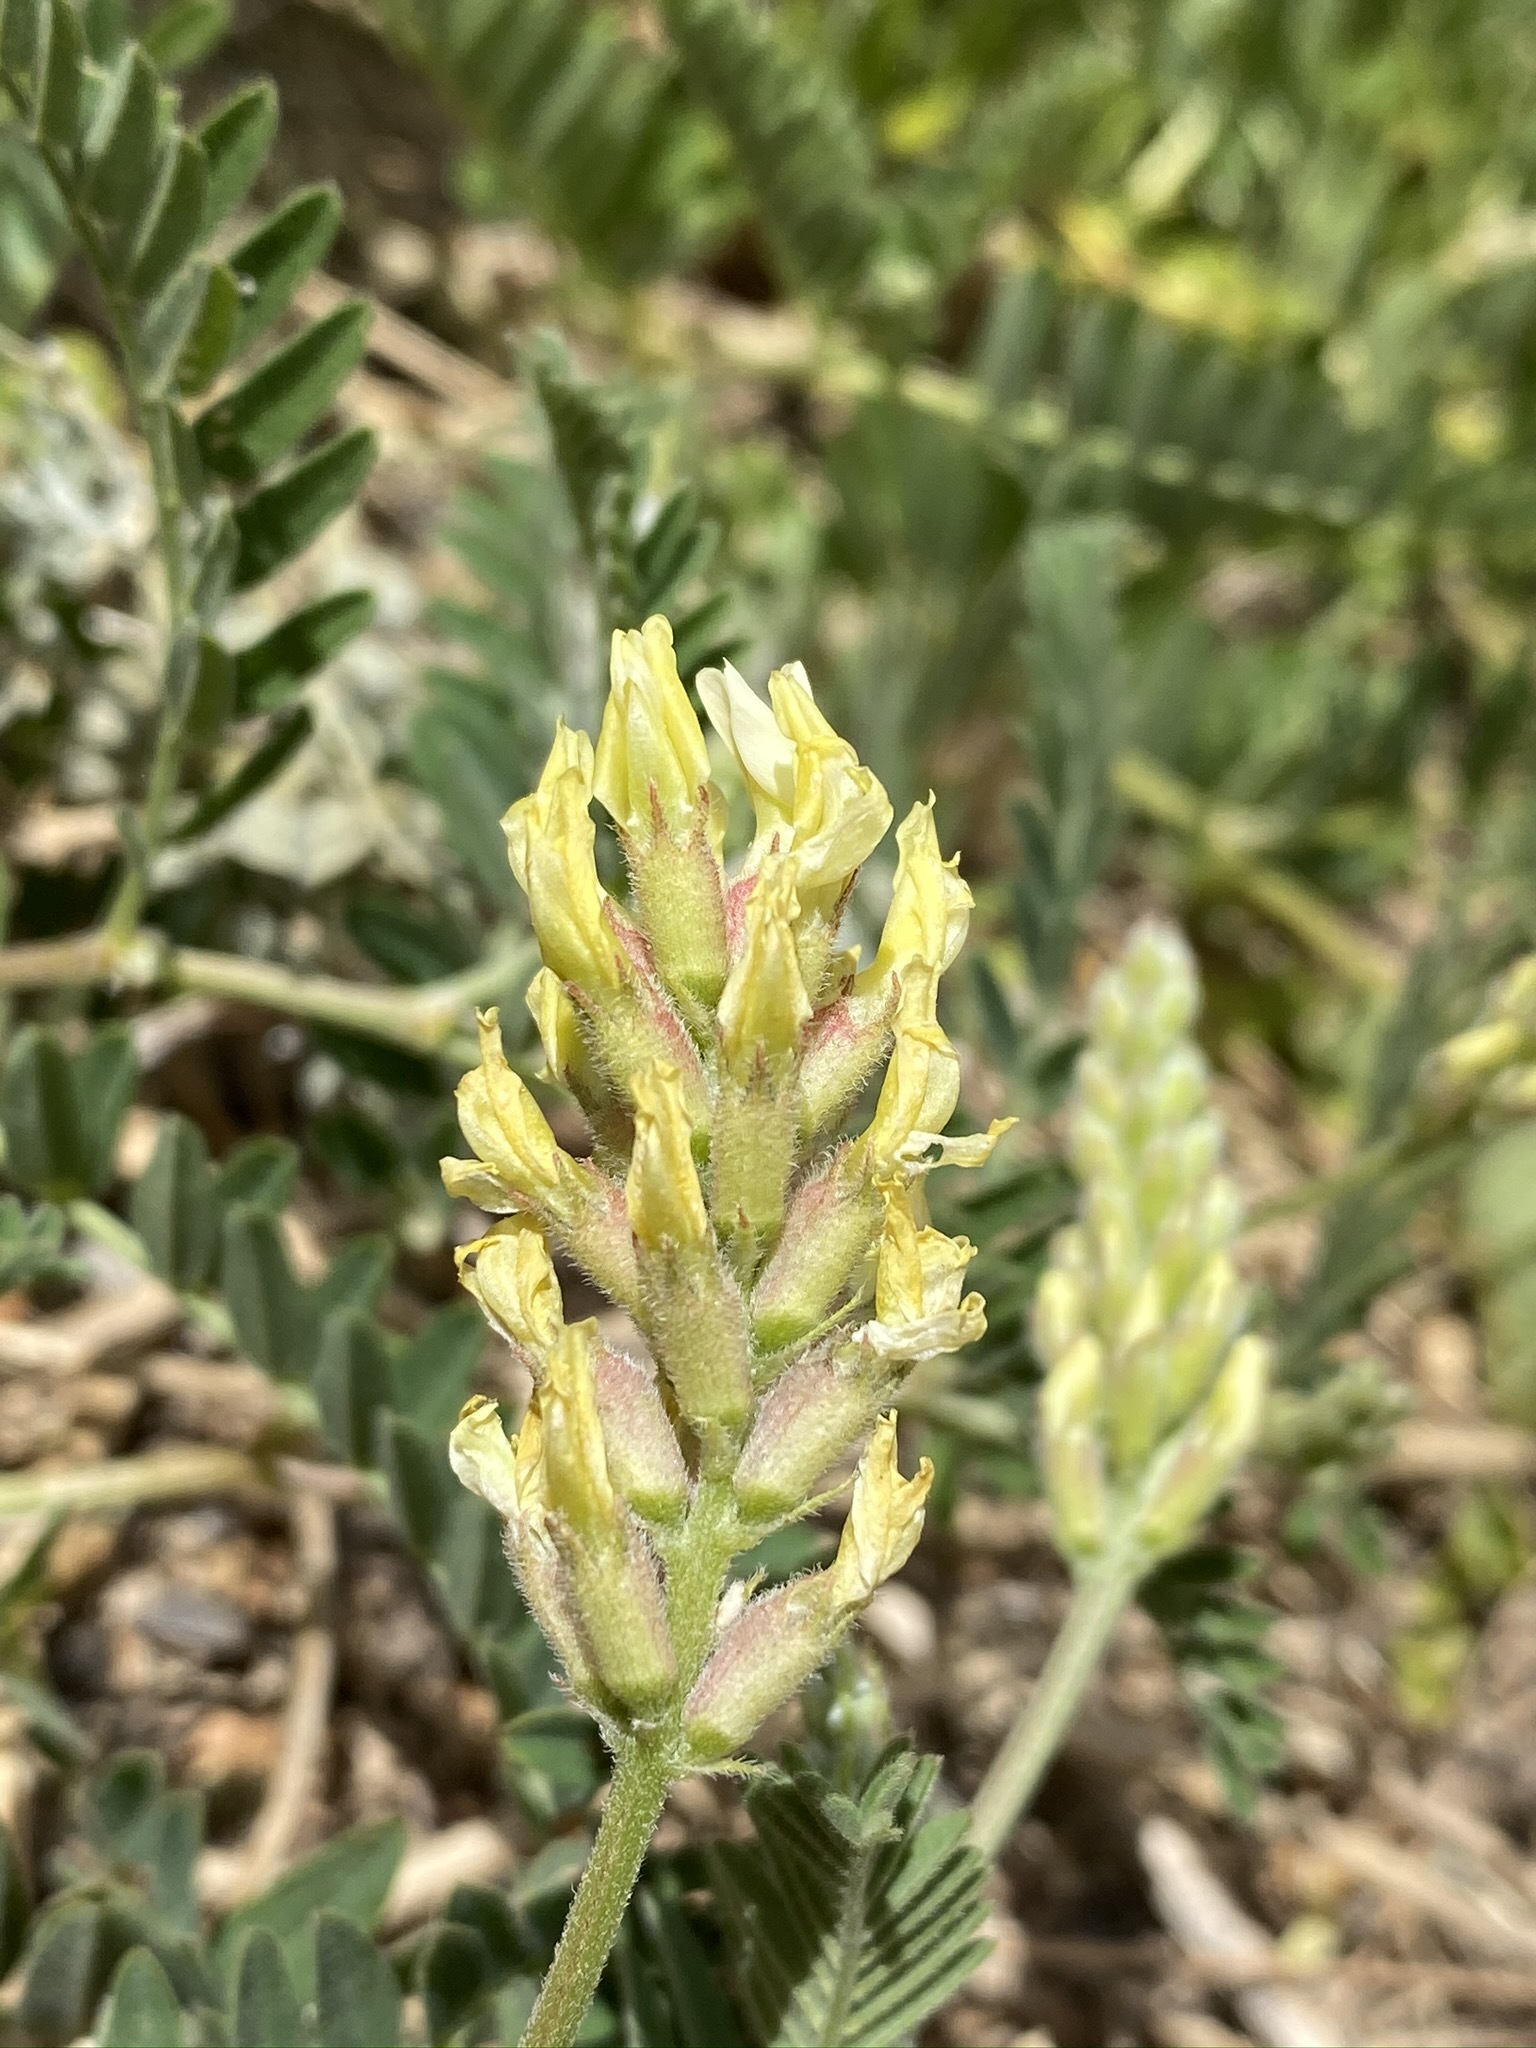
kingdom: Plantae
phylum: Tracheophyta
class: Magnoliopsida
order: Fabales
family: Fabaceae
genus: Astragalus
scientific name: Astragalus cicer
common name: Chick-pea milk-vetch
